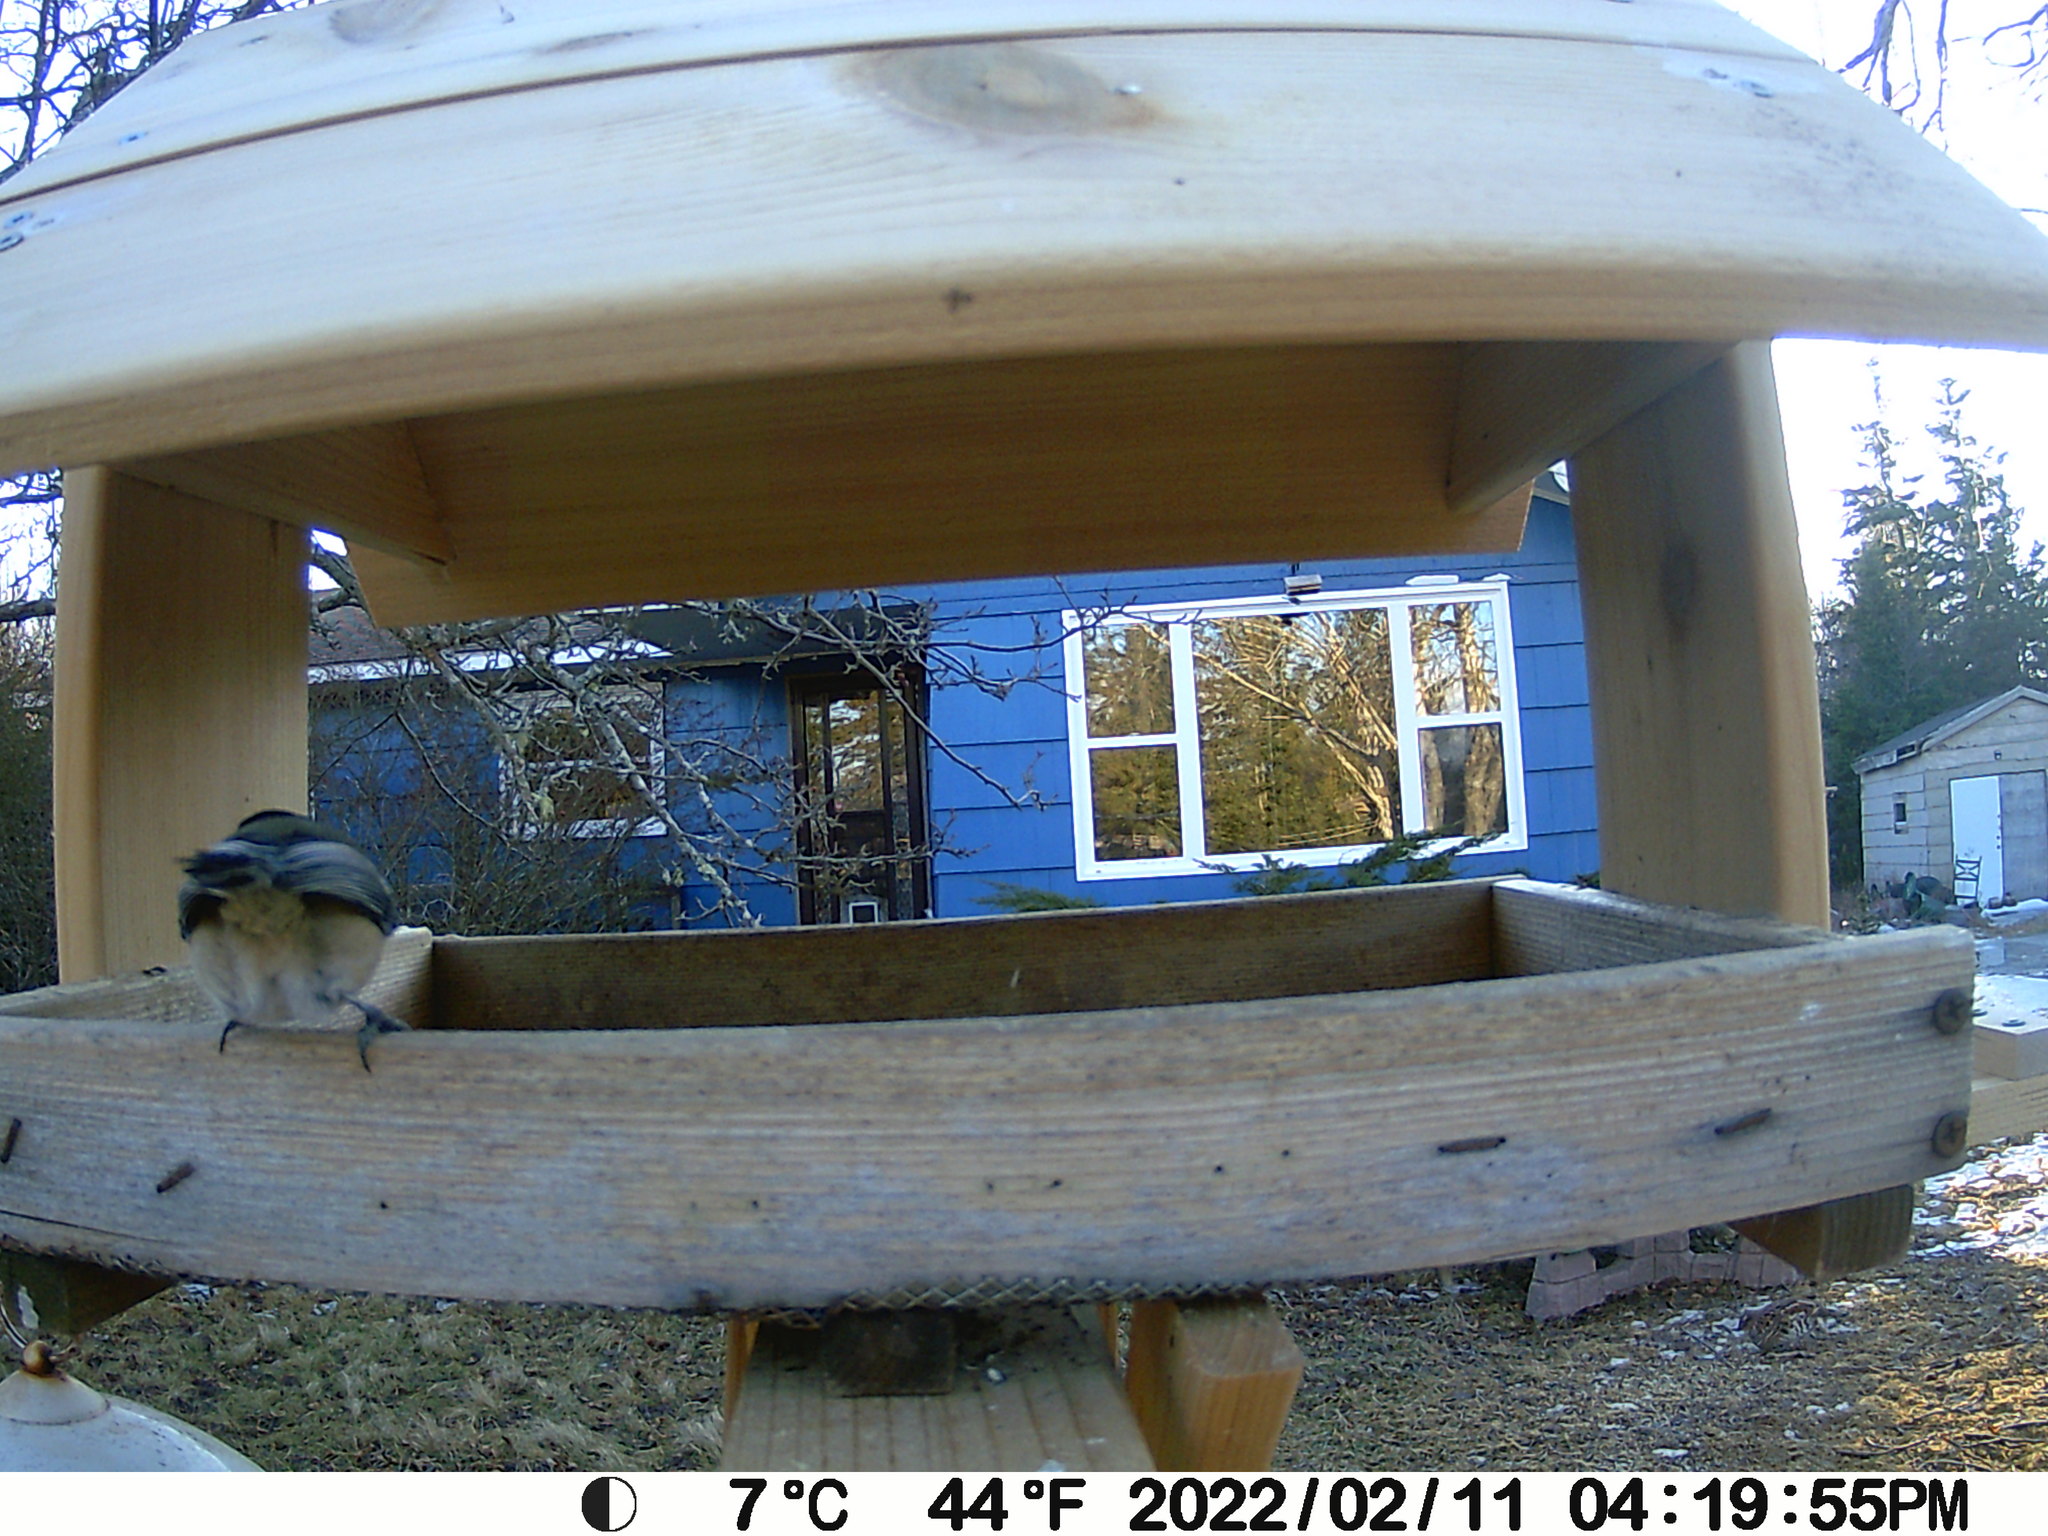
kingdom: Animalia
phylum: Chordata
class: Aves
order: Galliformes
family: Phasianidae
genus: Bonasa
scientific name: Bonasa umbellus
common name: Ruffed grouse
